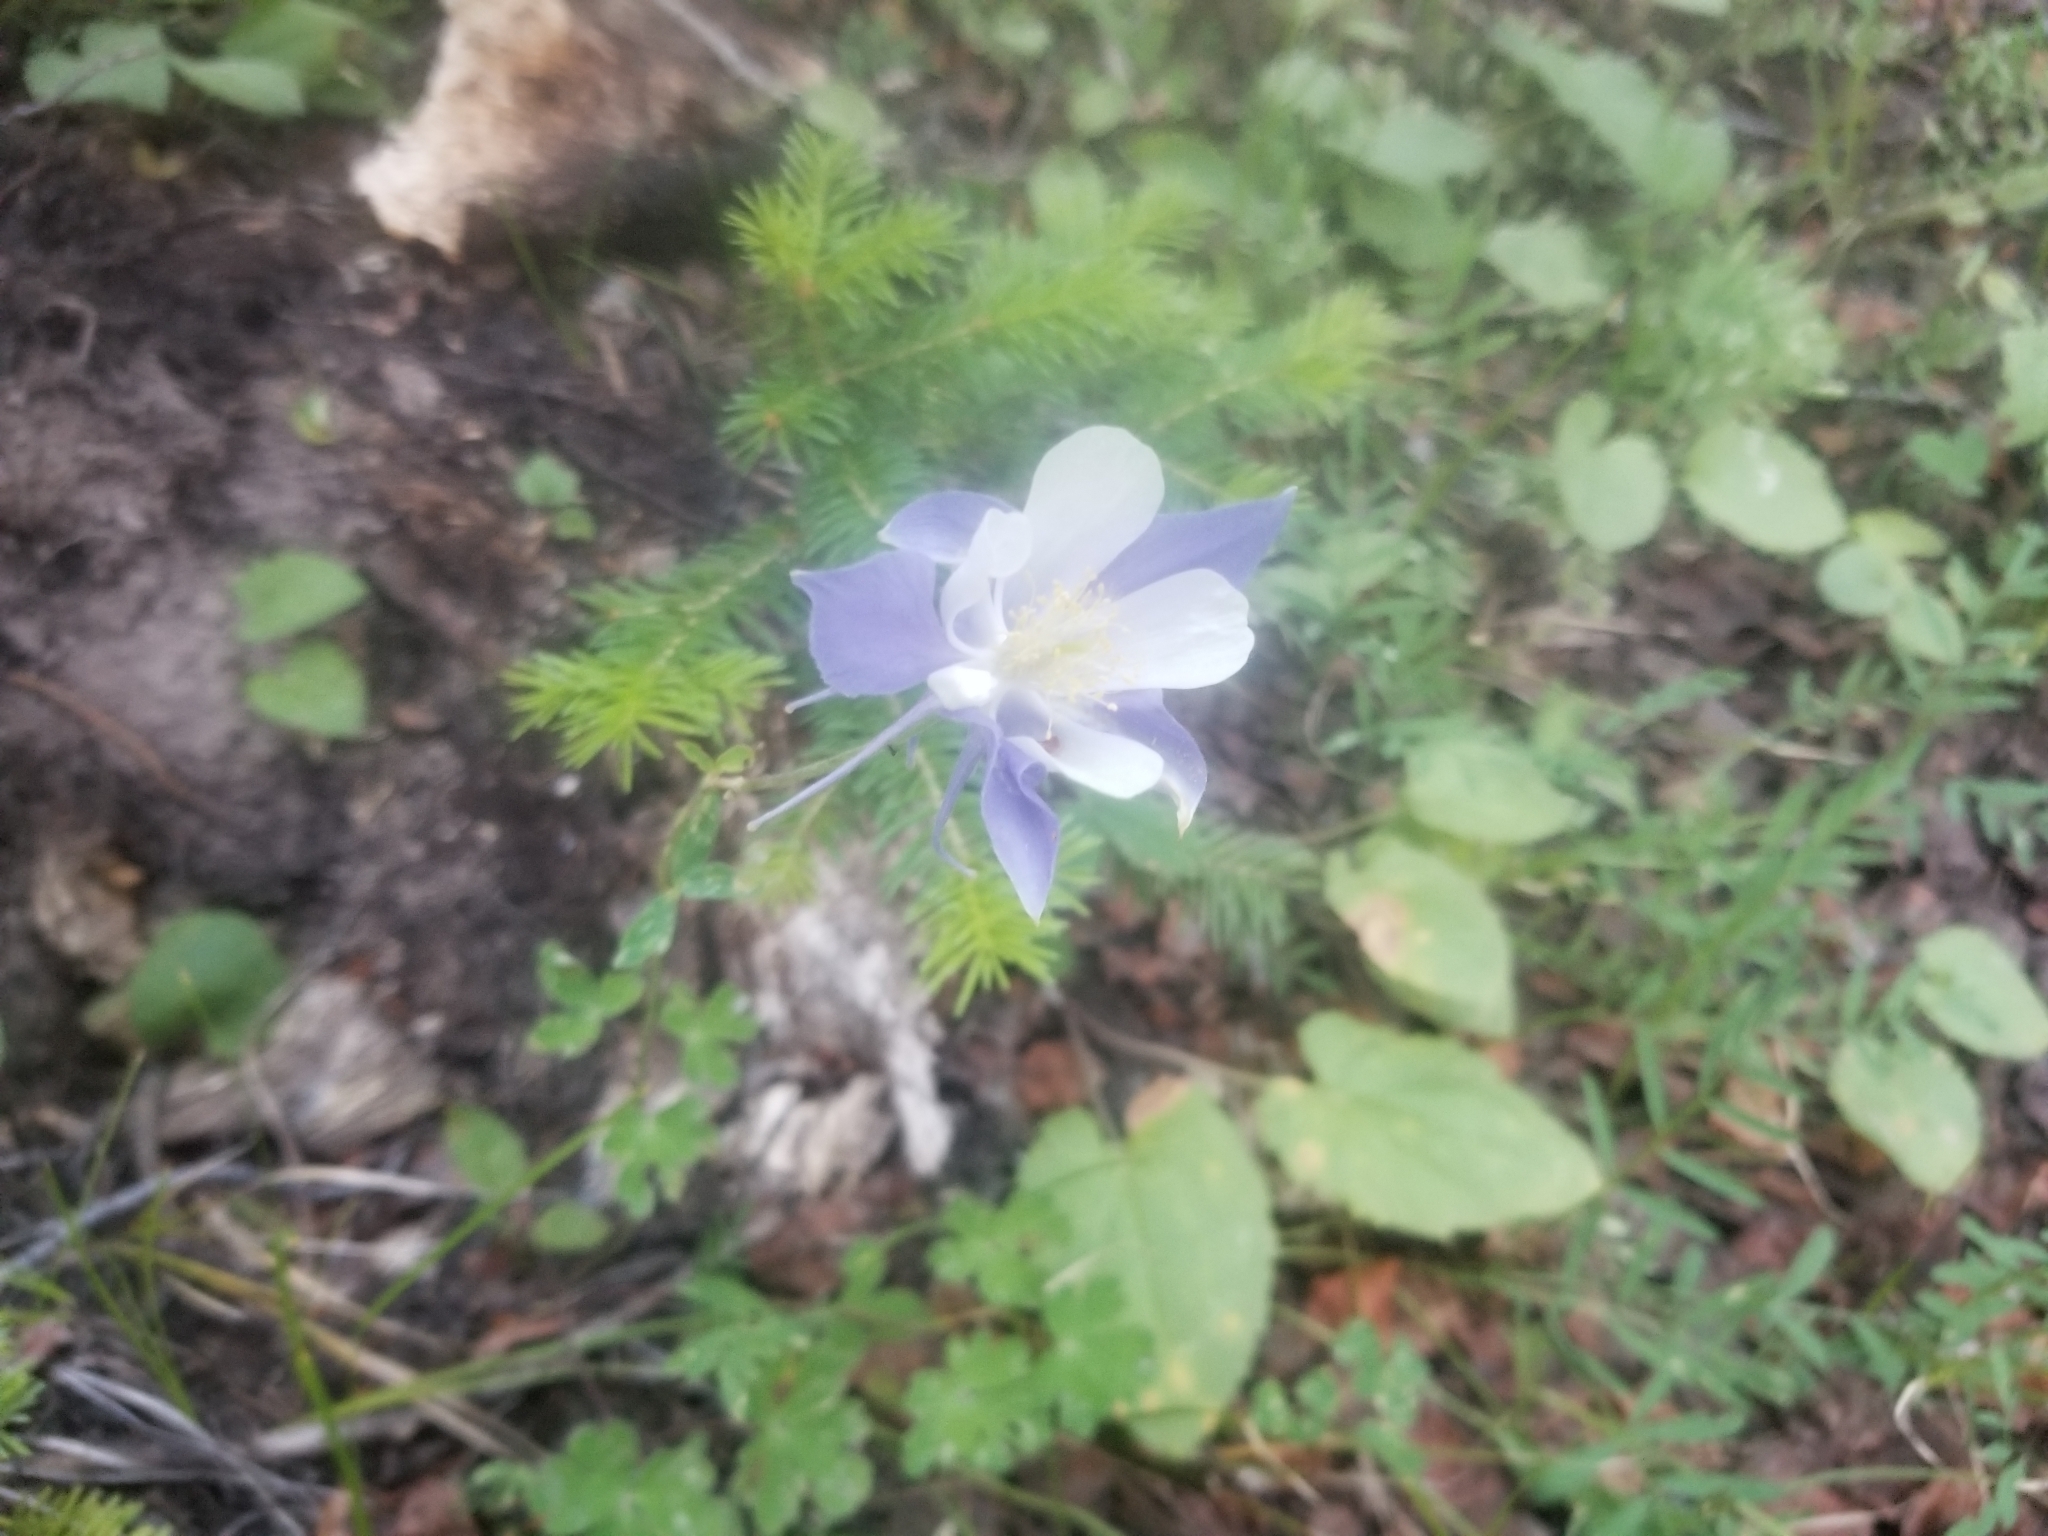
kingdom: Plantae
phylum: Tracheophyta
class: Magnoliopsida
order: Ranunculales
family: Ranunculaceae
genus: Aquilegia
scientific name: Aquilegia coerulea
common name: Rocky mountain columbine
